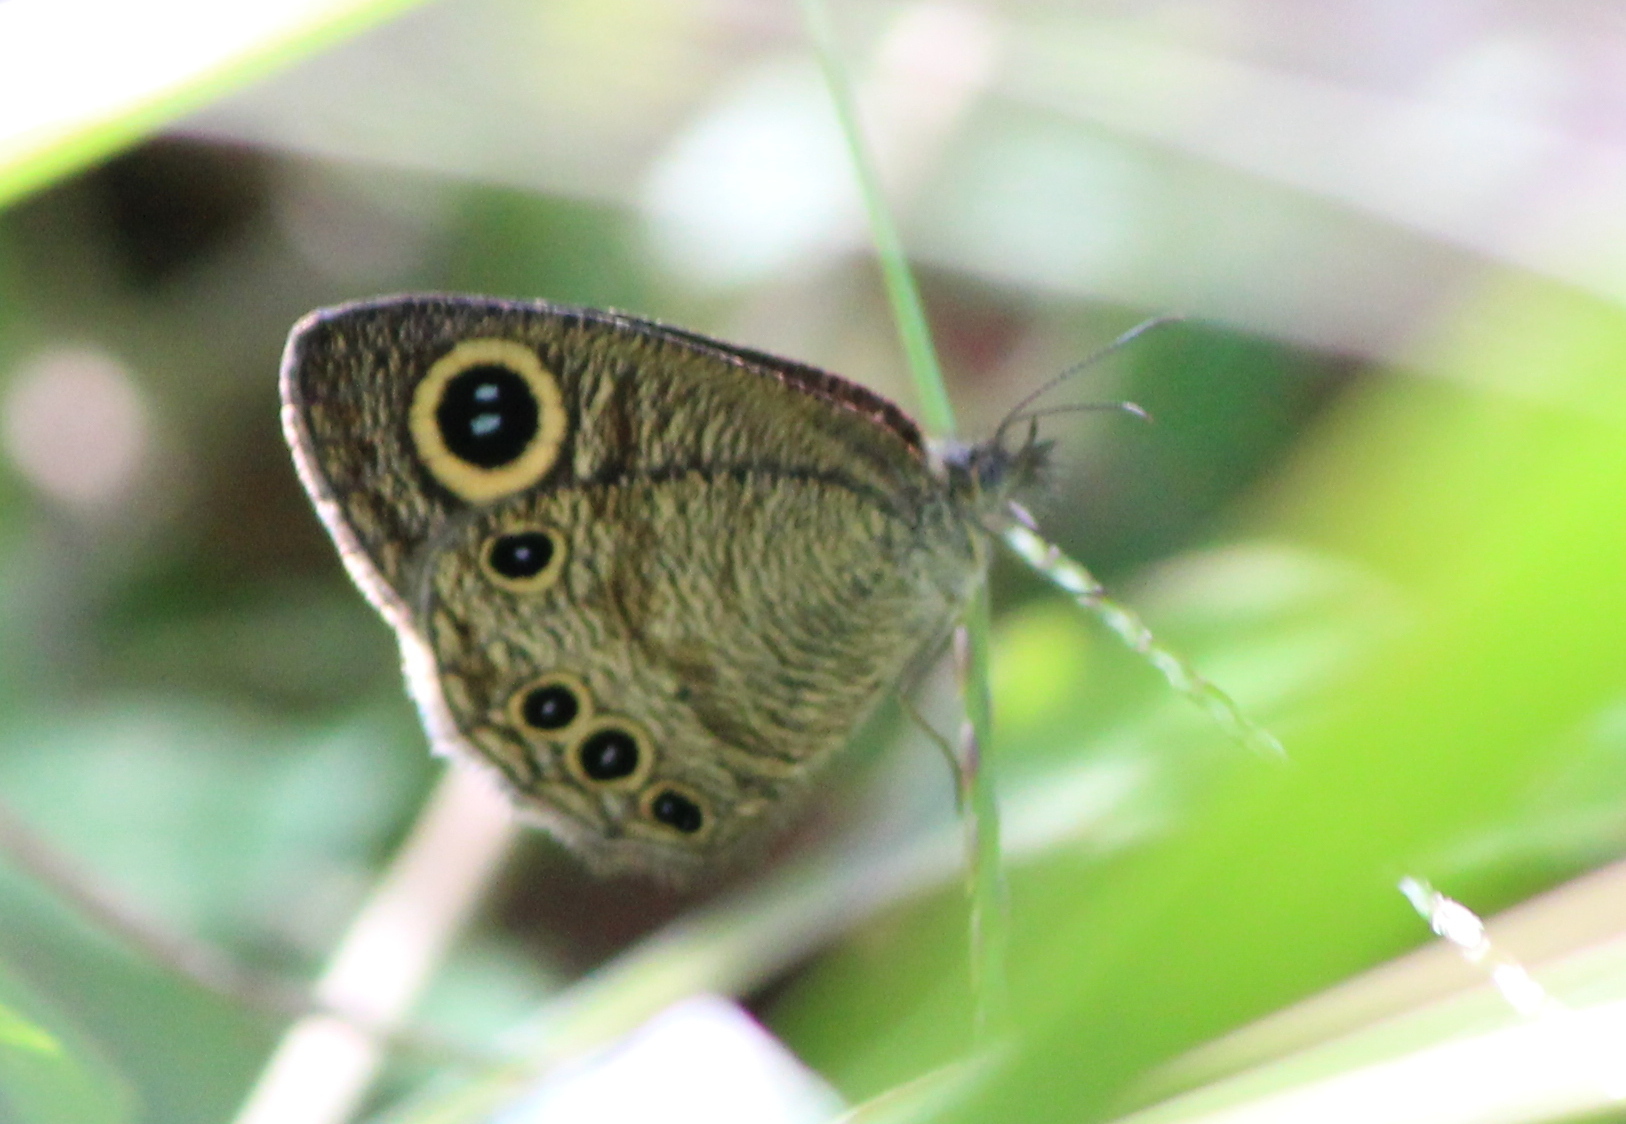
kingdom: Animalia
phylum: Arthropoda
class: Insecta
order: Lepidoptera
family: Nymphalidae
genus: Ypthima
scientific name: Ypthima huebneri
